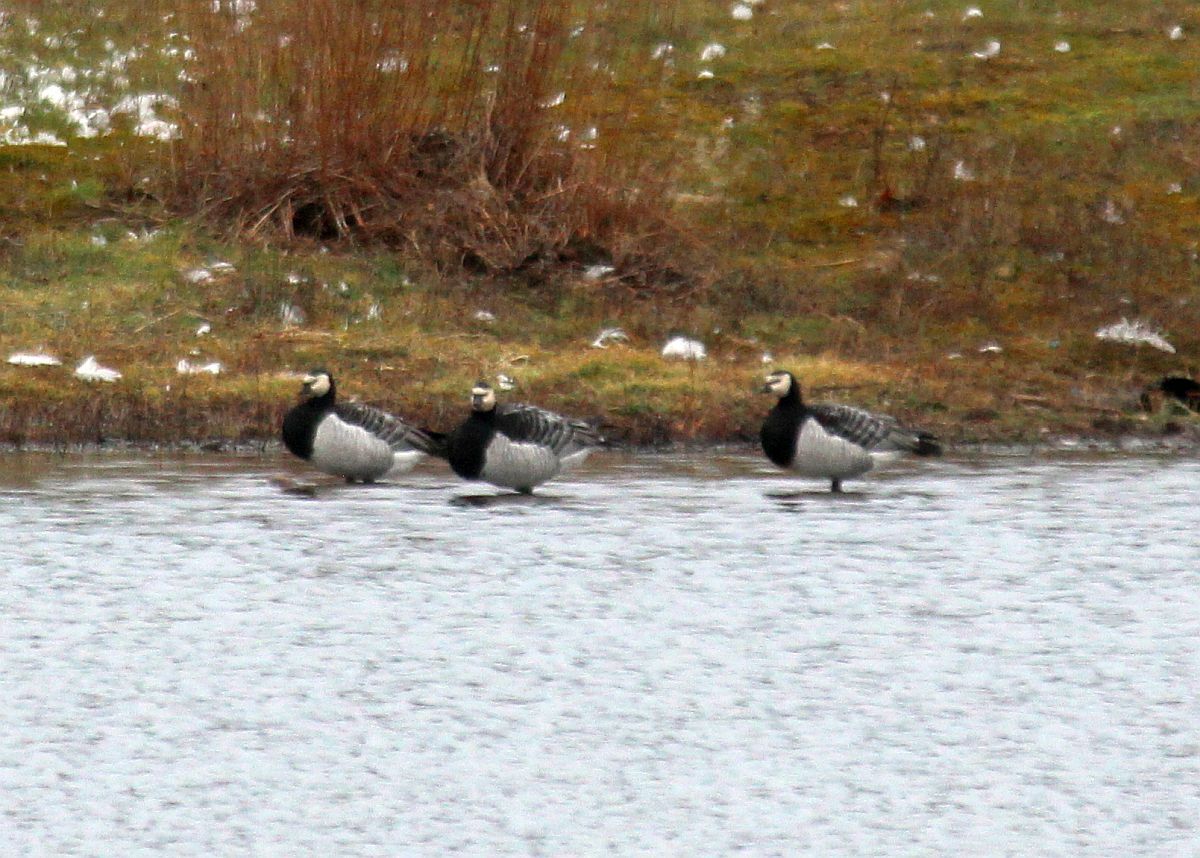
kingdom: Animalia
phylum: Chordata
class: Aves
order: Anseriformes
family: Anatidae
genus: Branta
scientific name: Branta leucopsis
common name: Barnacle goose
